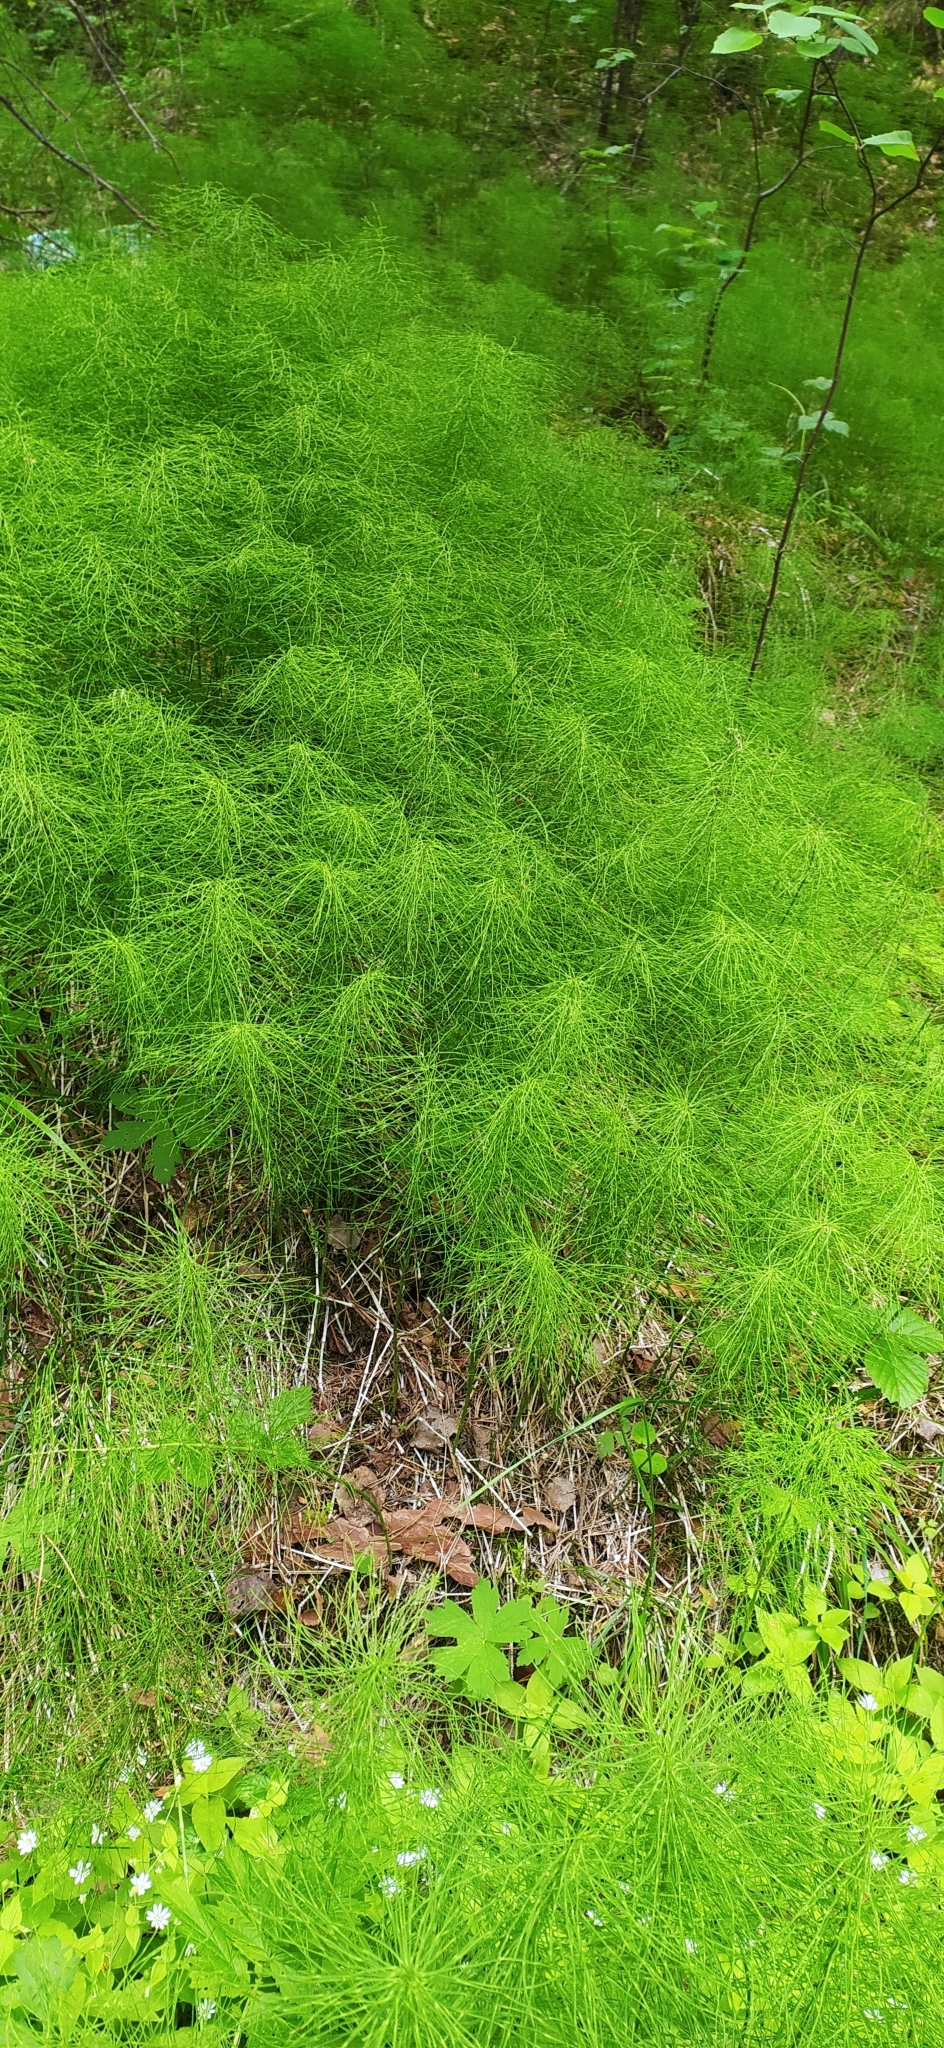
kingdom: Plantae
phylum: Tracheophyta
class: Polypodiopsida
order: Equisetales
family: Equisetaceae
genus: Equisetum
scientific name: Equisetum sylvaticum
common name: Wood horsetail
